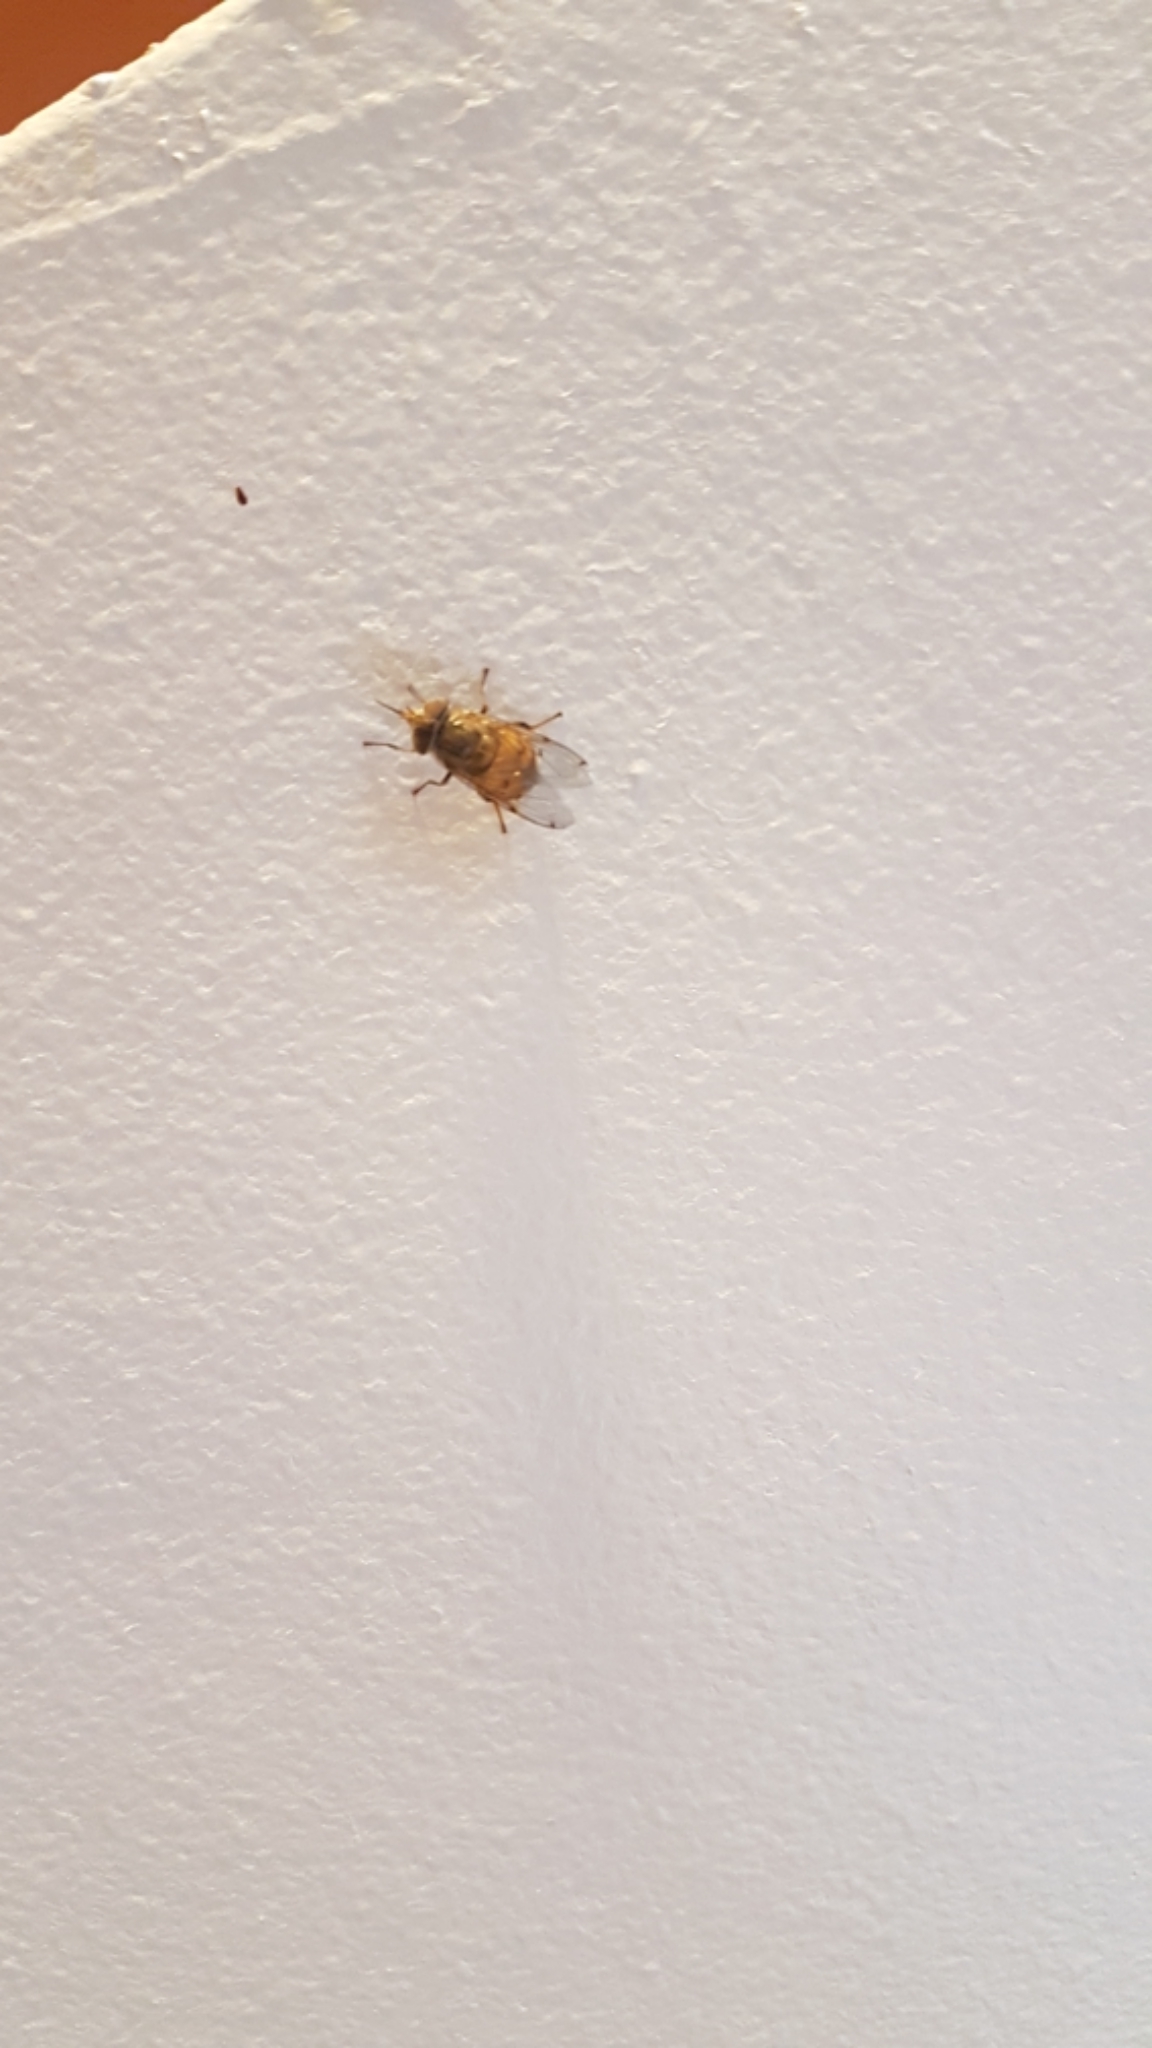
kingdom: Animalia
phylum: Arthropoda
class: Insecta
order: Diptera
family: Syrphidae
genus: Copestylum
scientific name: Copestylum haagii
